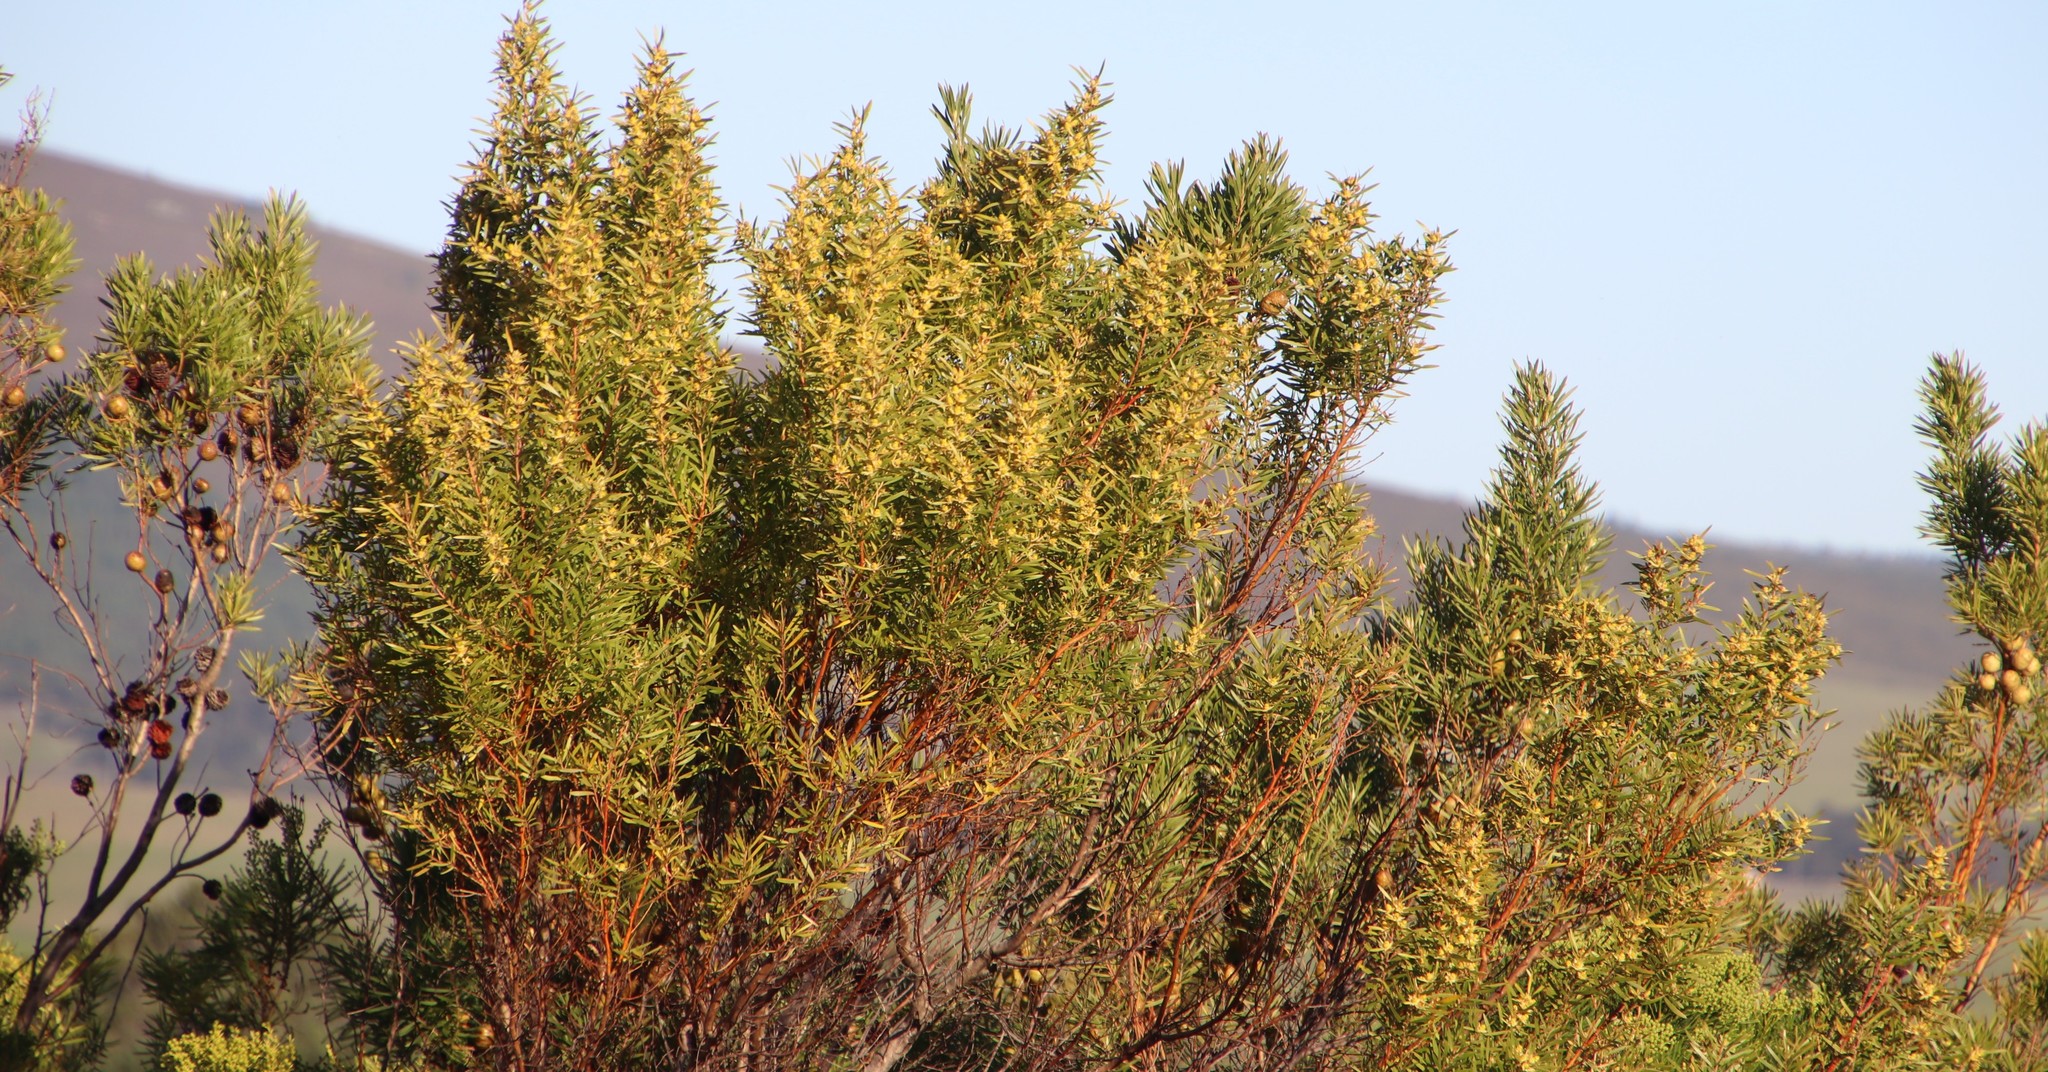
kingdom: Plantae
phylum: Tracheophyta
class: Magnoliopsida
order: Proteales
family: Proteaceae
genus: Leucadendron
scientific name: Leucadendron salicifolium
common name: Common stream conebush
